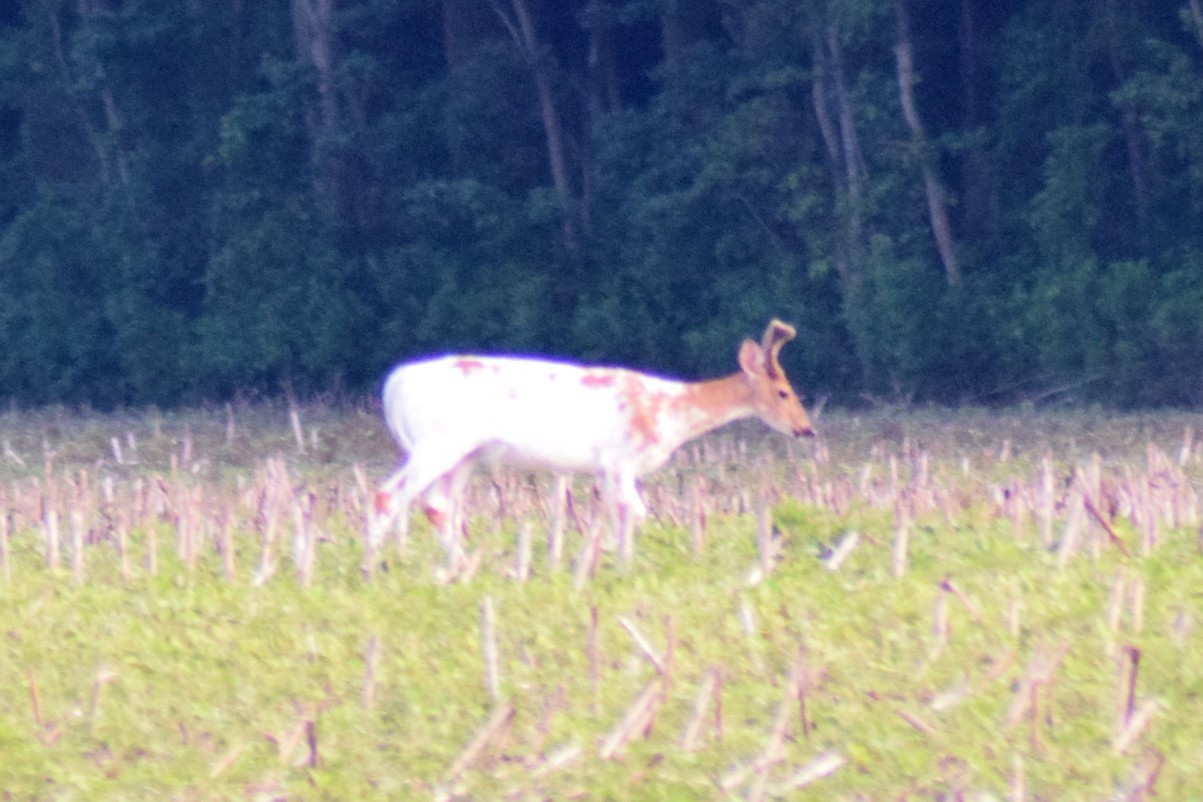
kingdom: Animalia
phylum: Chordata
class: Mammalia
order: Artiodactyla
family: Cervidae
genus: Odocoileus
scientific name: Odocoileus virginianus
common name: White-tailed deer
